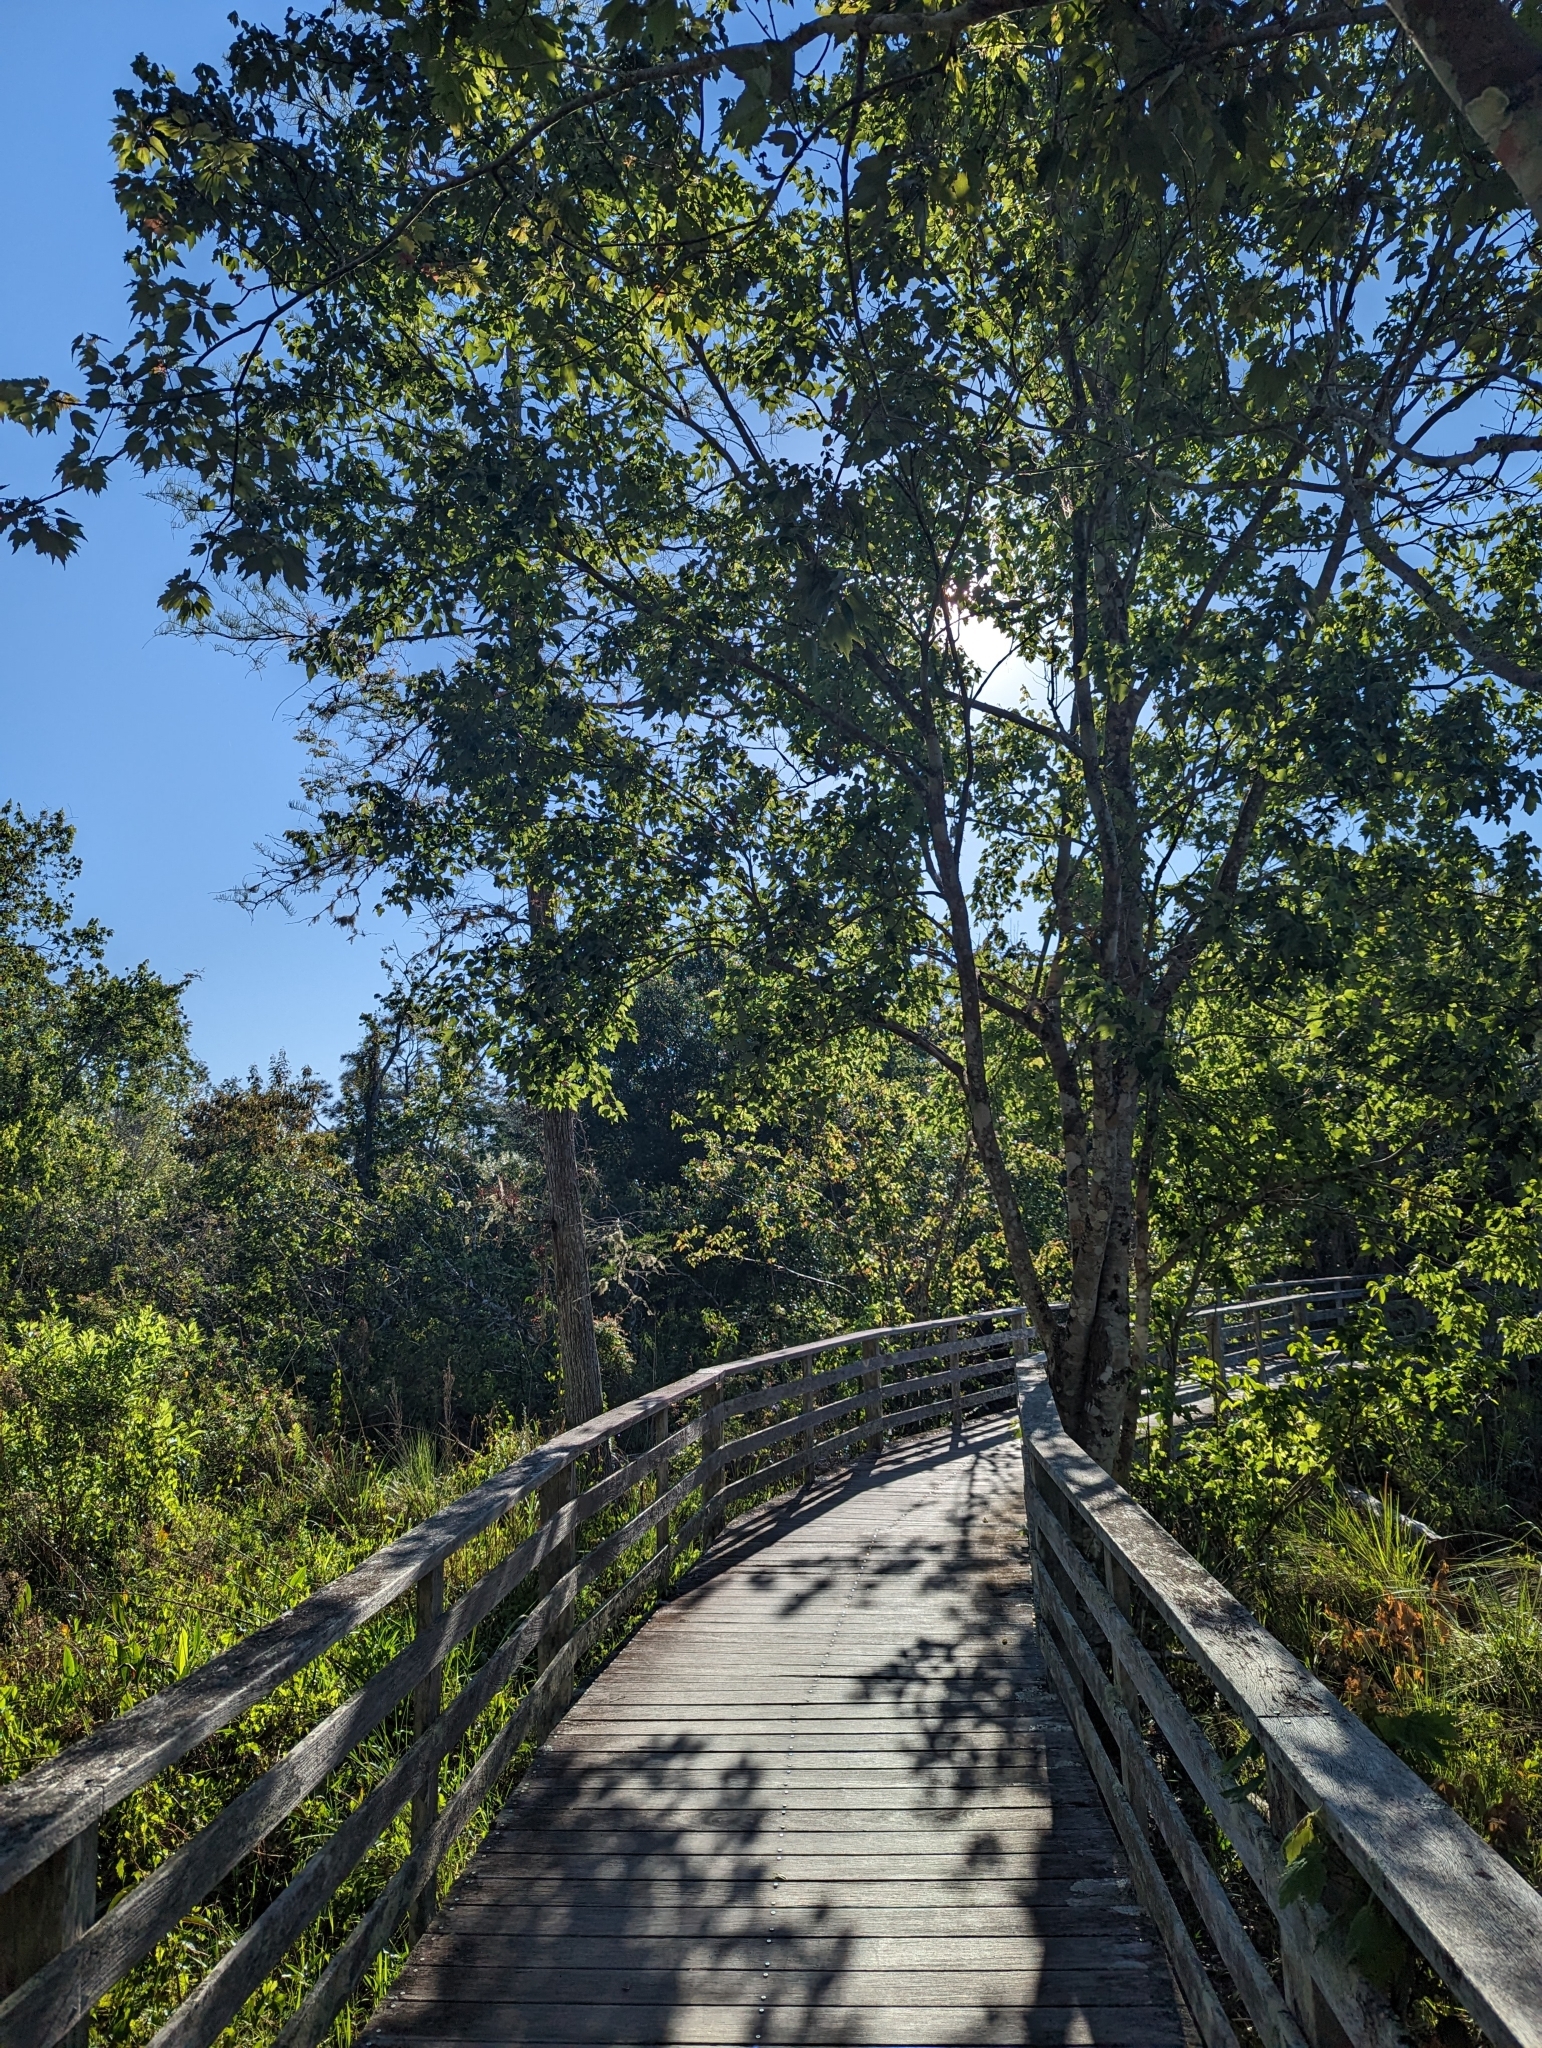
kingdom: Plantae
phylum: Tracheophyta
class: Magnoliopsida
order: Sapindales
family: Sapindaceae
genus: Acer
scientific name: Acer rubrum
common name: Red maple
